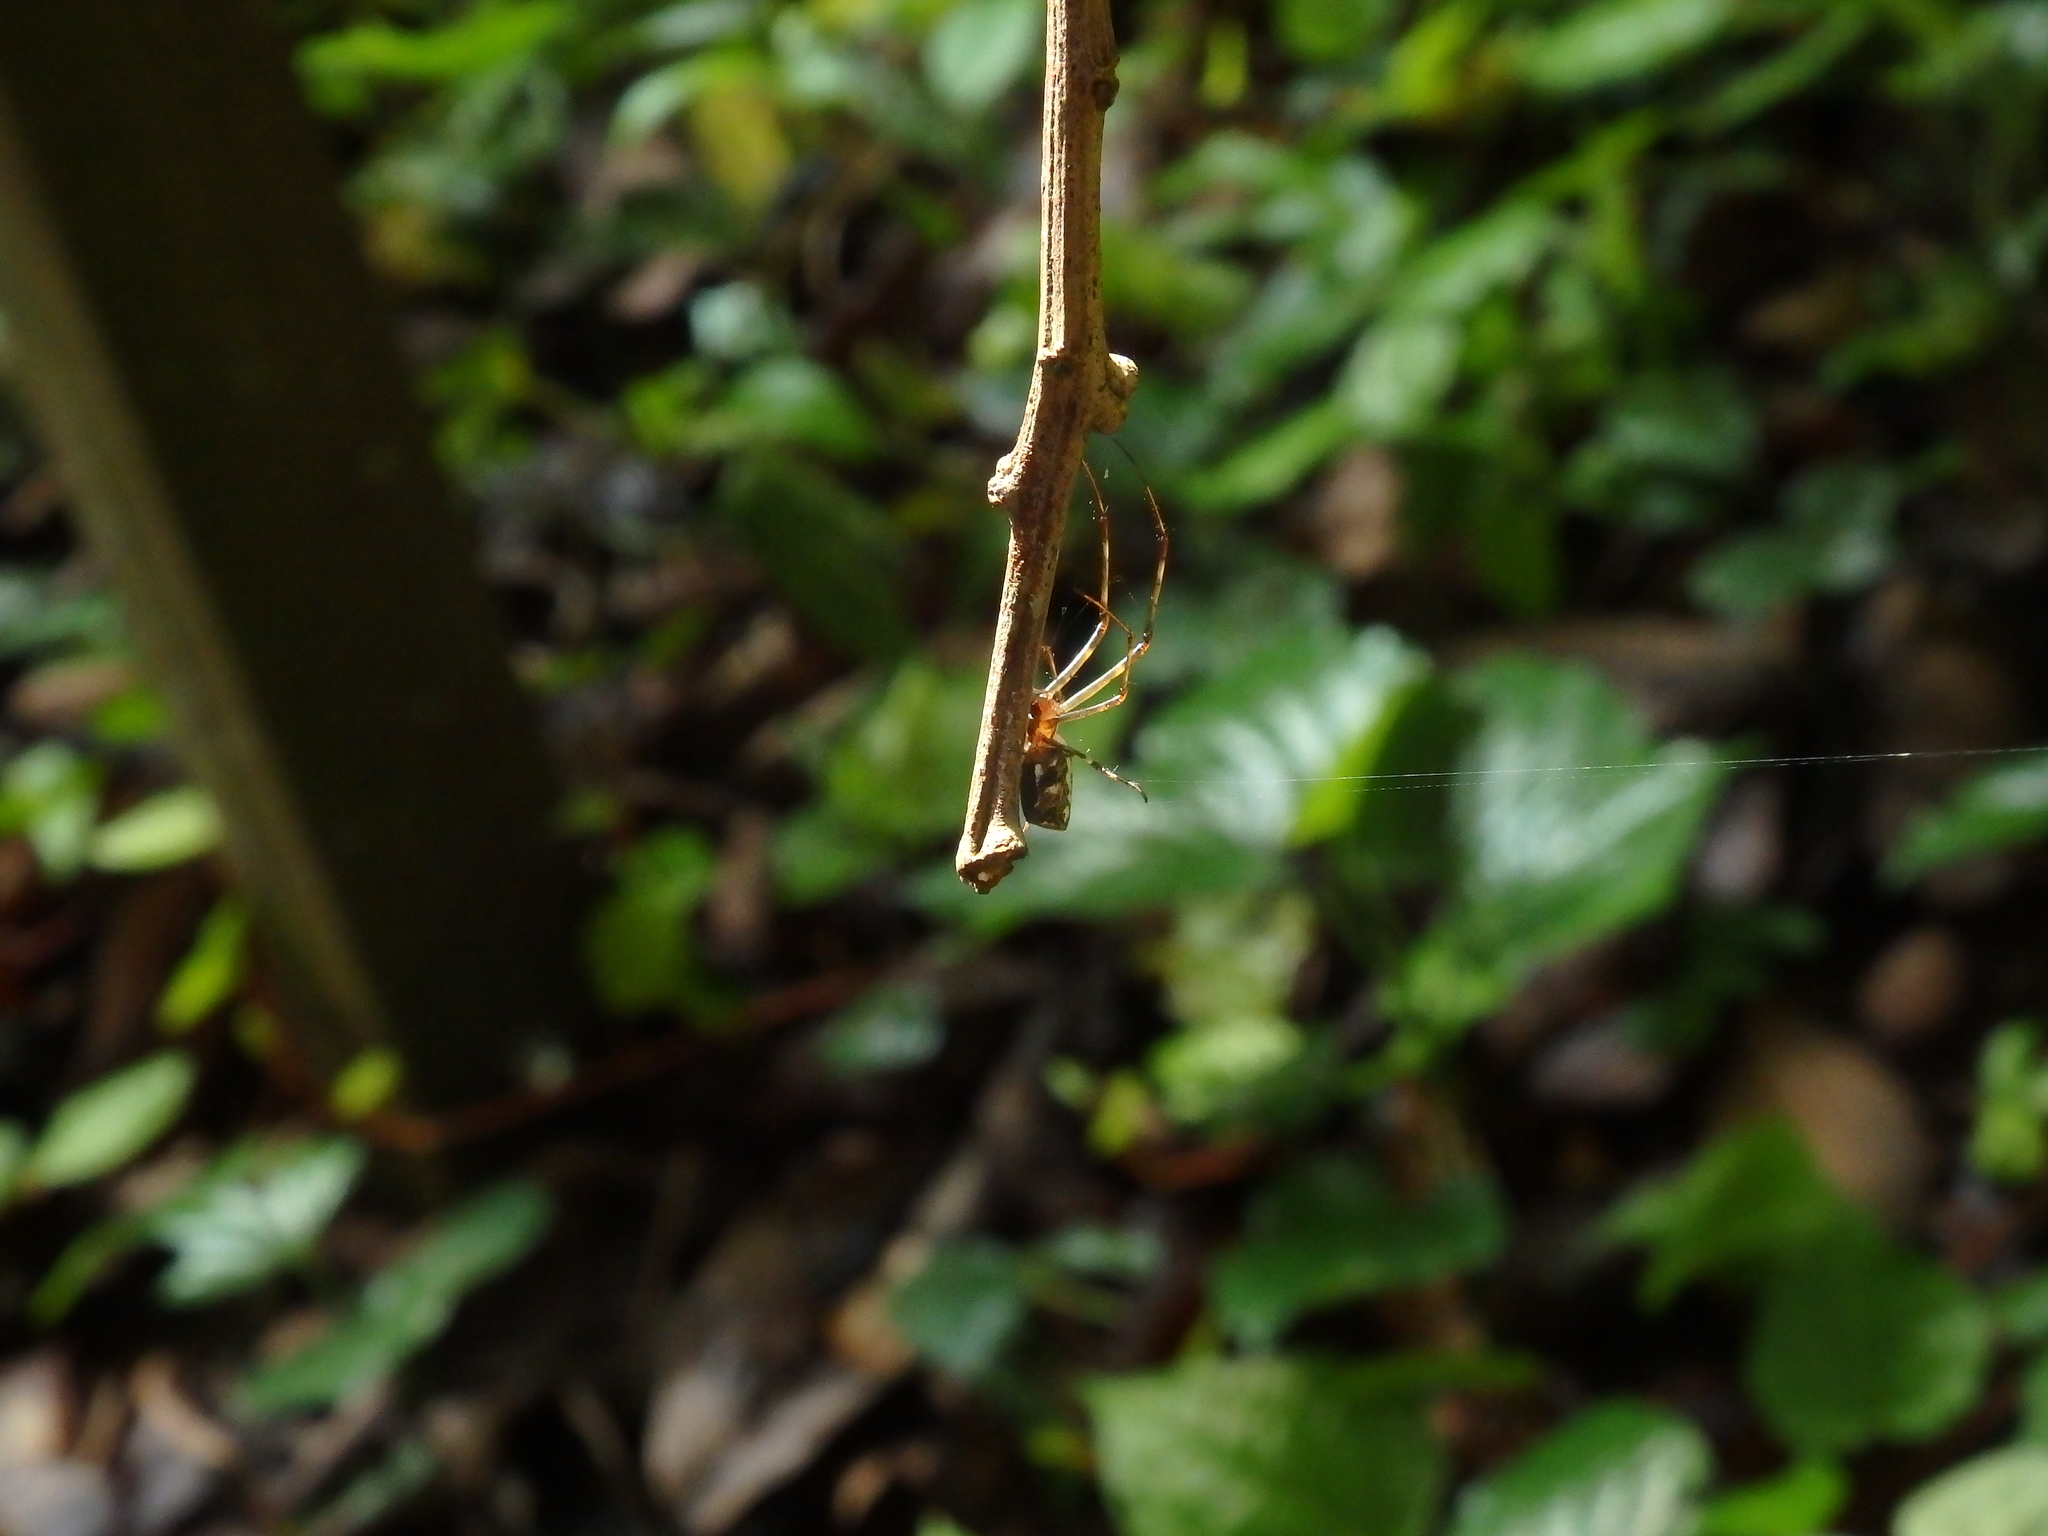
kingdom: Animalia
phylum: Arthropoda
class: Arachnida
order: Araneae
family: Tetragnathidae
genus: Tylorida
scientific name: Tylorida ventralis
